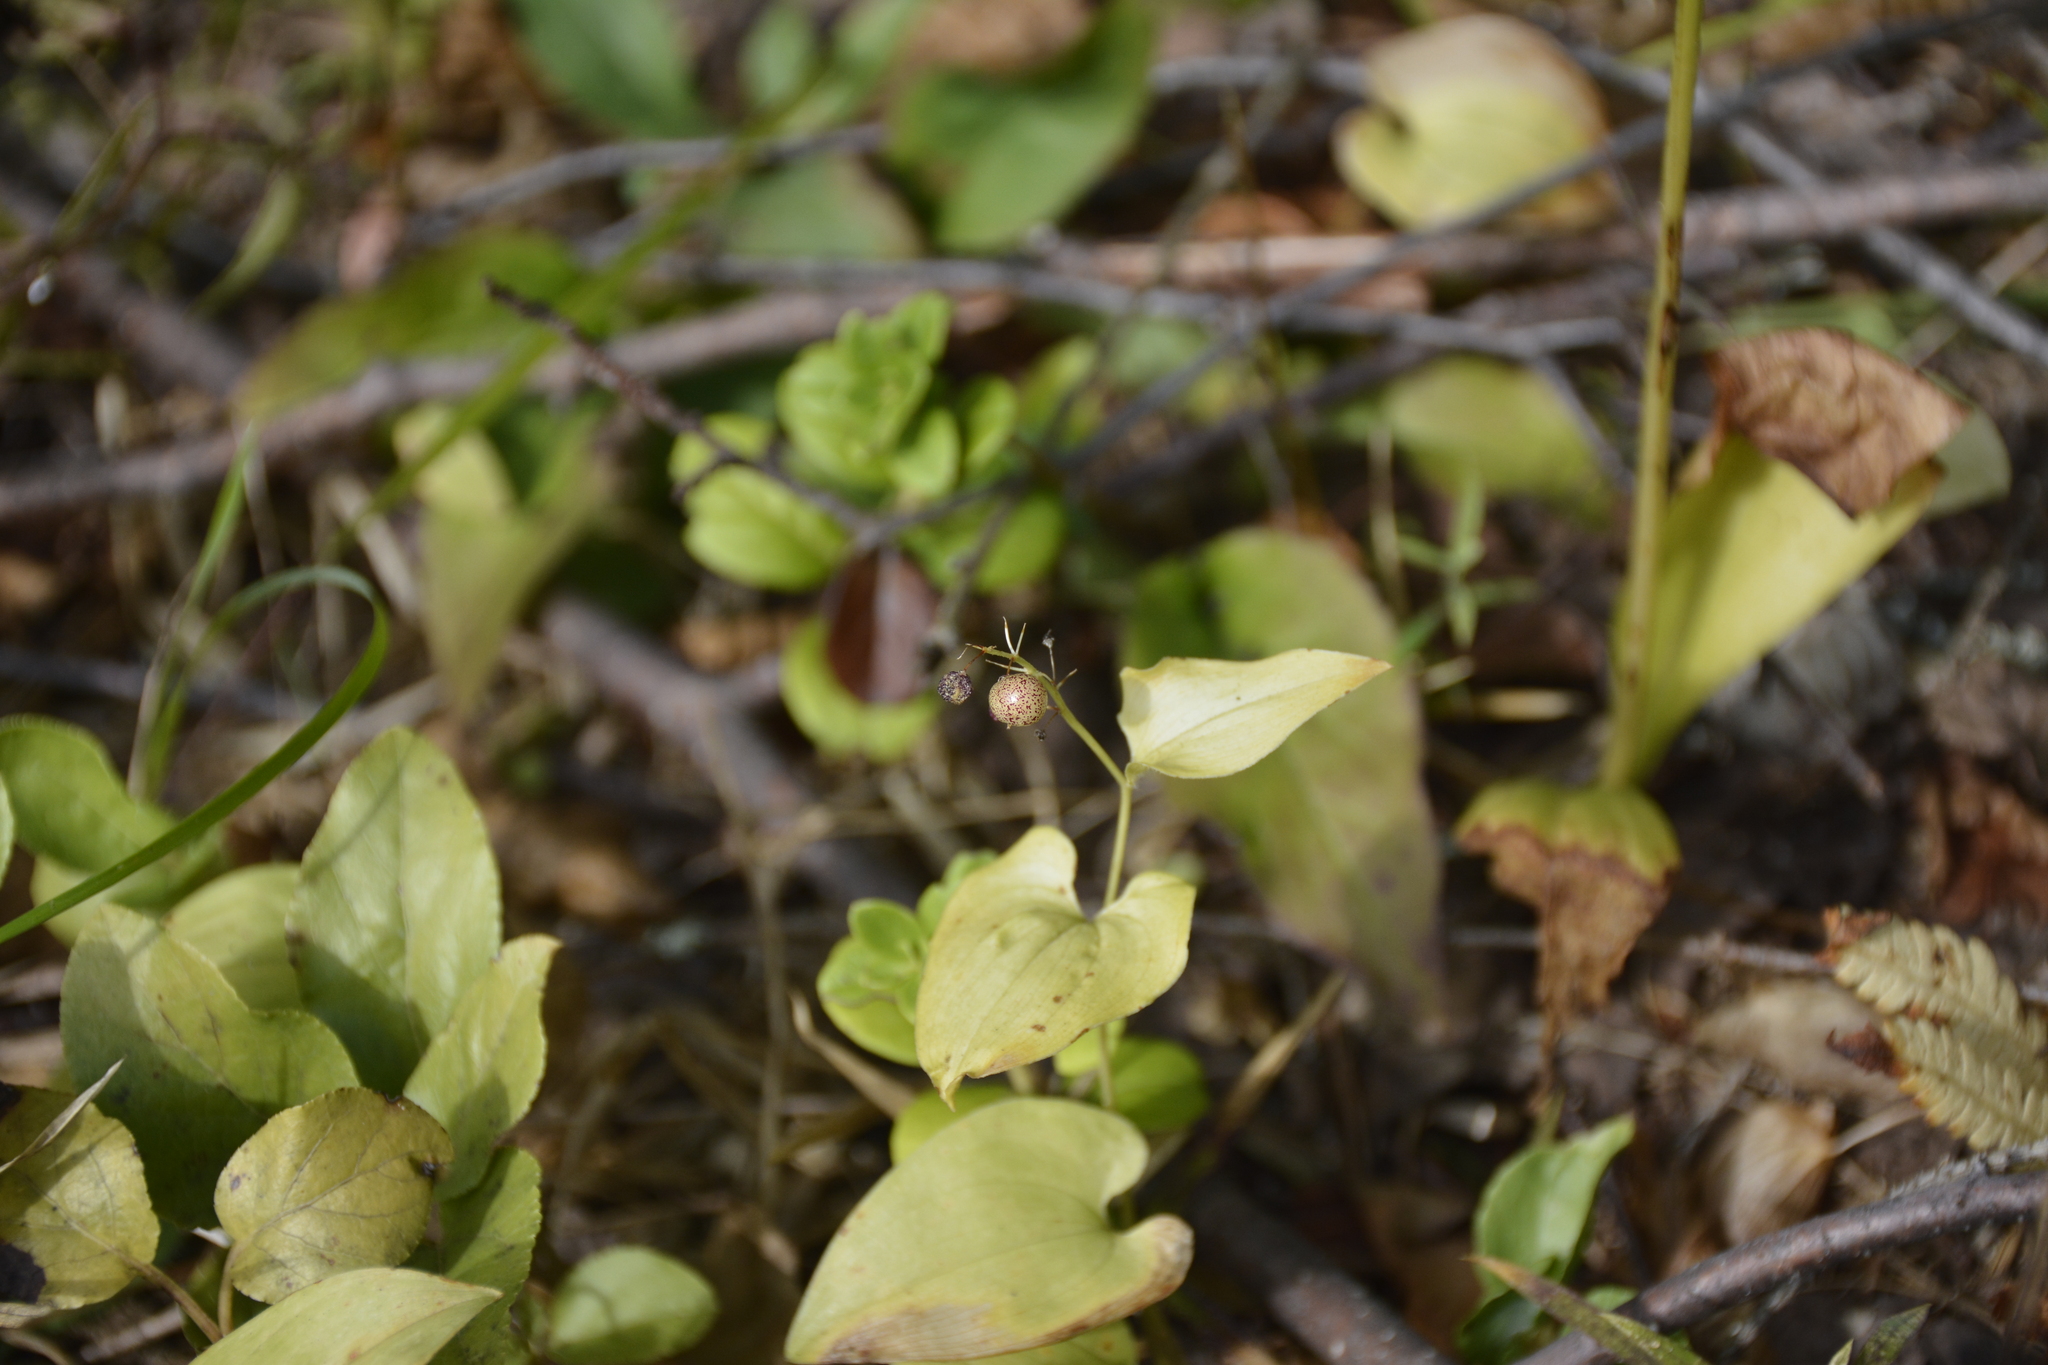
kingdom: Plantae
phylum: Tracheophyta
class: Liliopsida
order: Asparagales
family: Asparagaceae
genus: Maianthemum
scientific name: Maianthemum bifolium
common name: May lily
